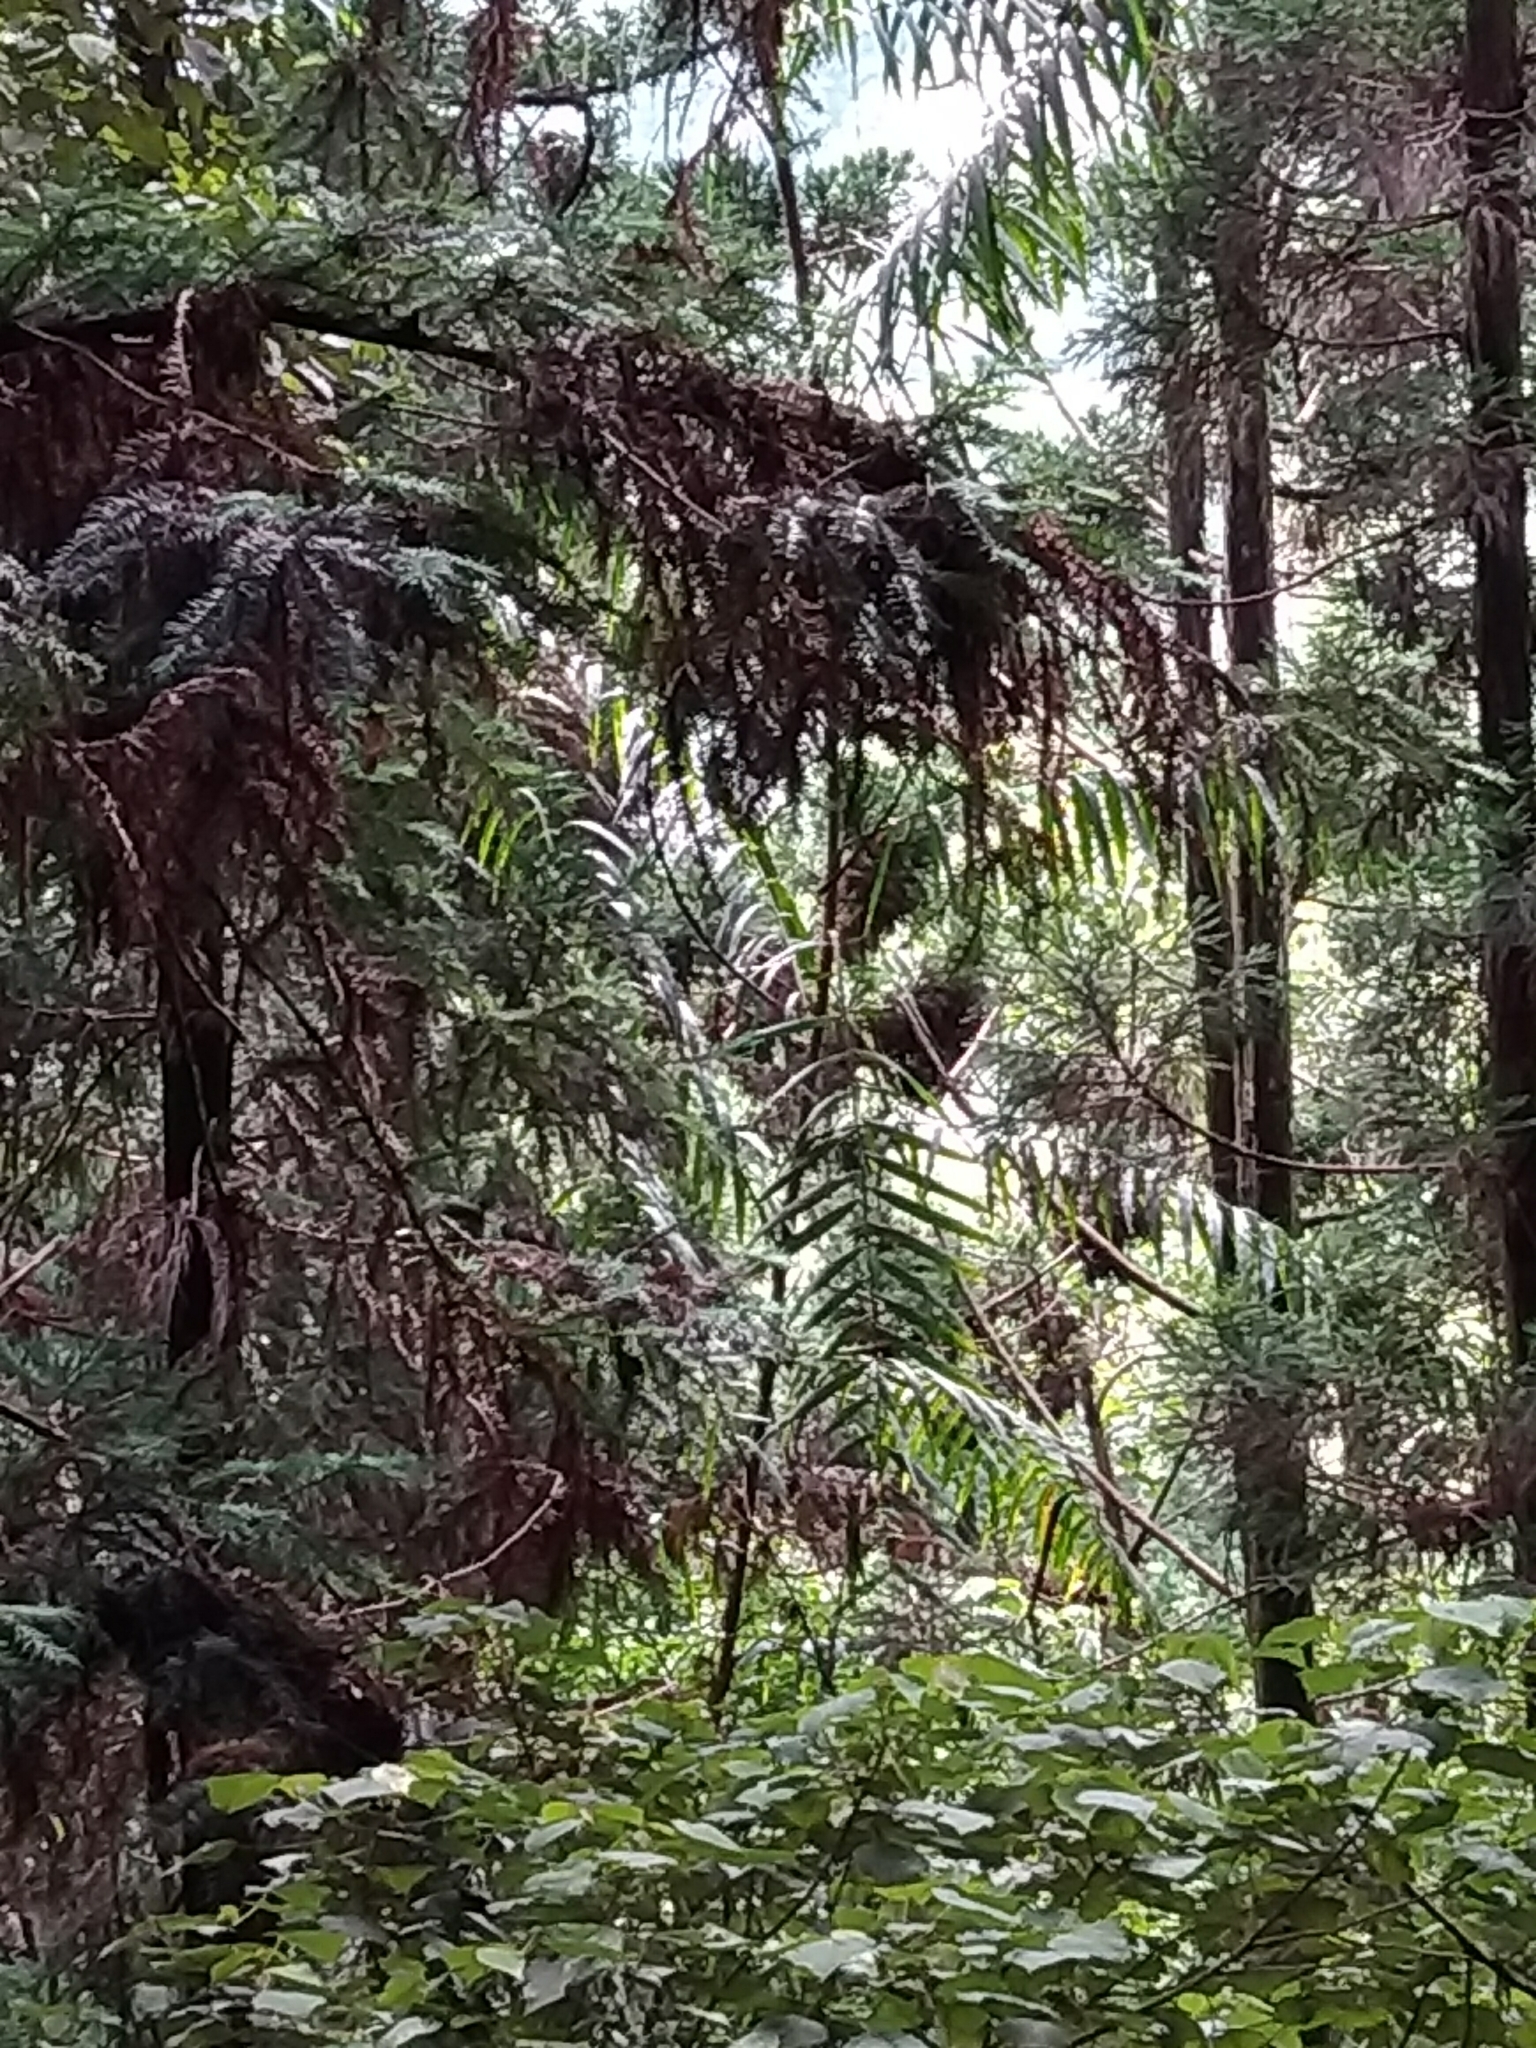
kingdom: Plantae
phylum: Tracheophyta
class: Liliopsida
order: Arecales
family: Arecaceae
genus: Calamus
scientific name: Calamus formosanus
